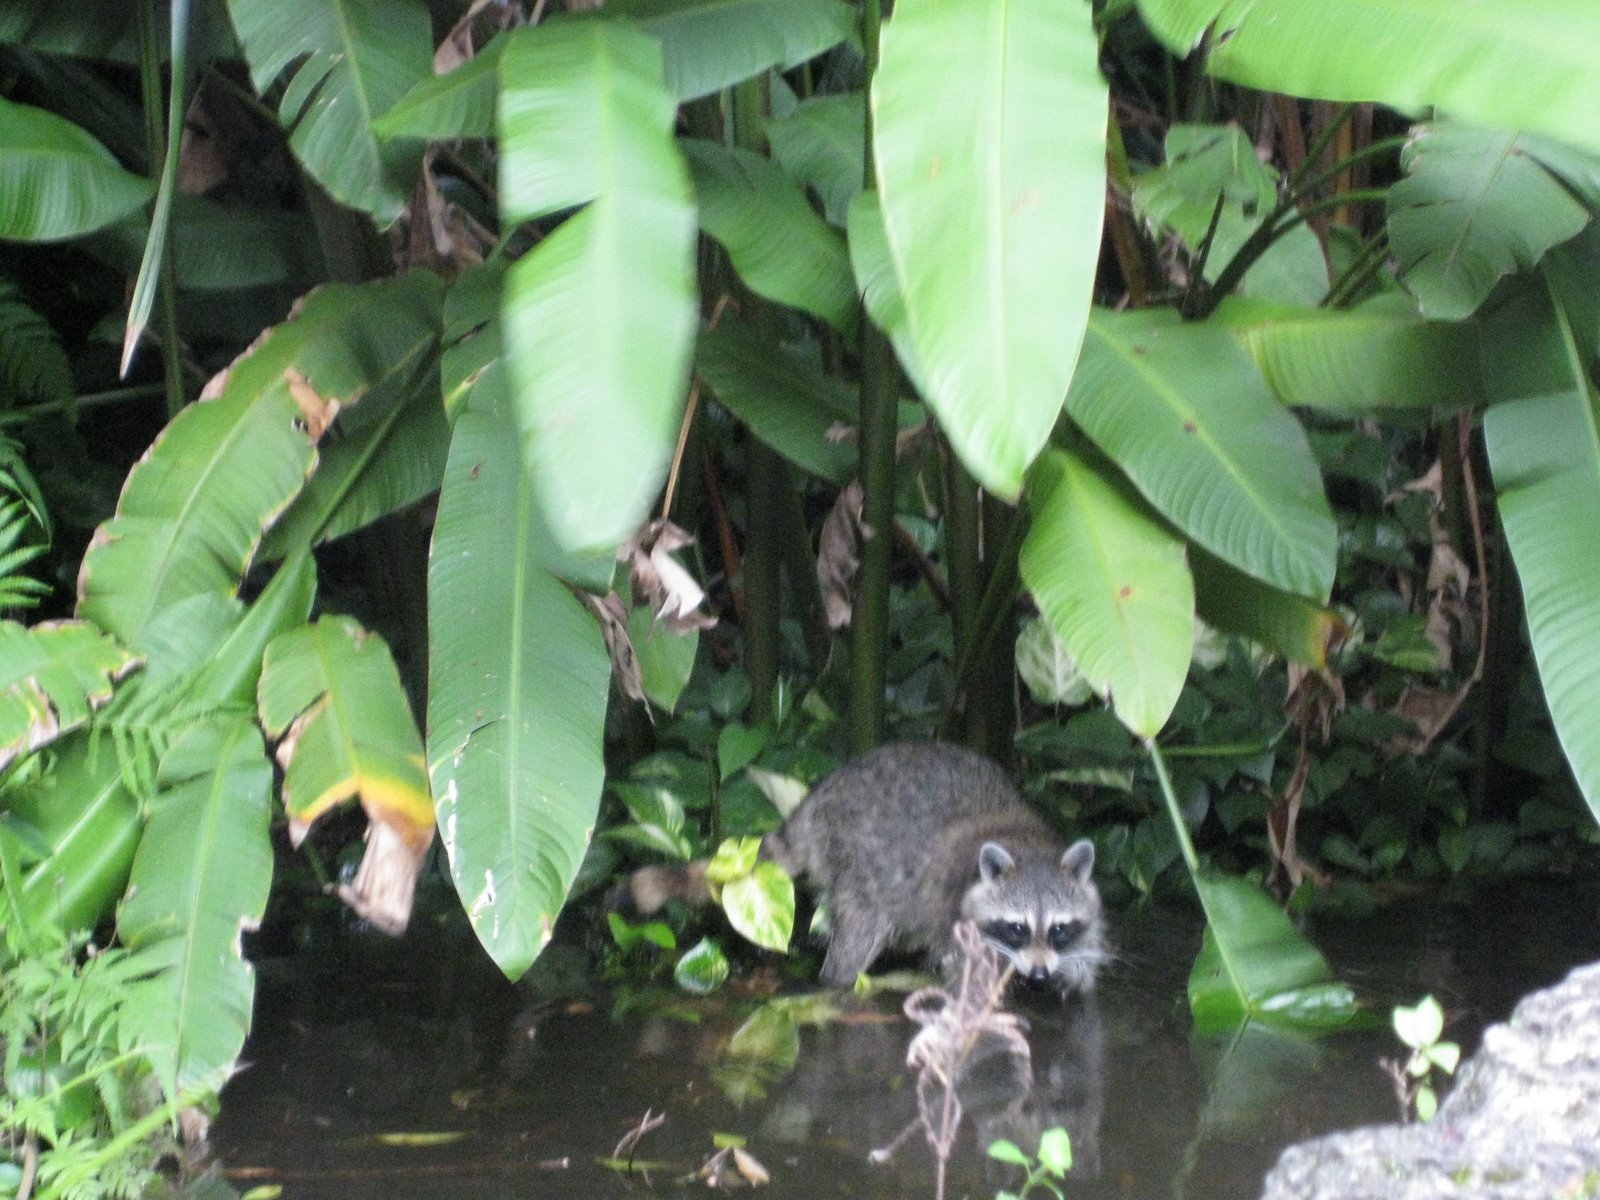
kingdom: Animalia
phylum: Chordata
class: Mammalia
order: Carnivora
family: Procyonidae
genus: Procyon
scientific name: Procyon lotor
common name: Raccoon
